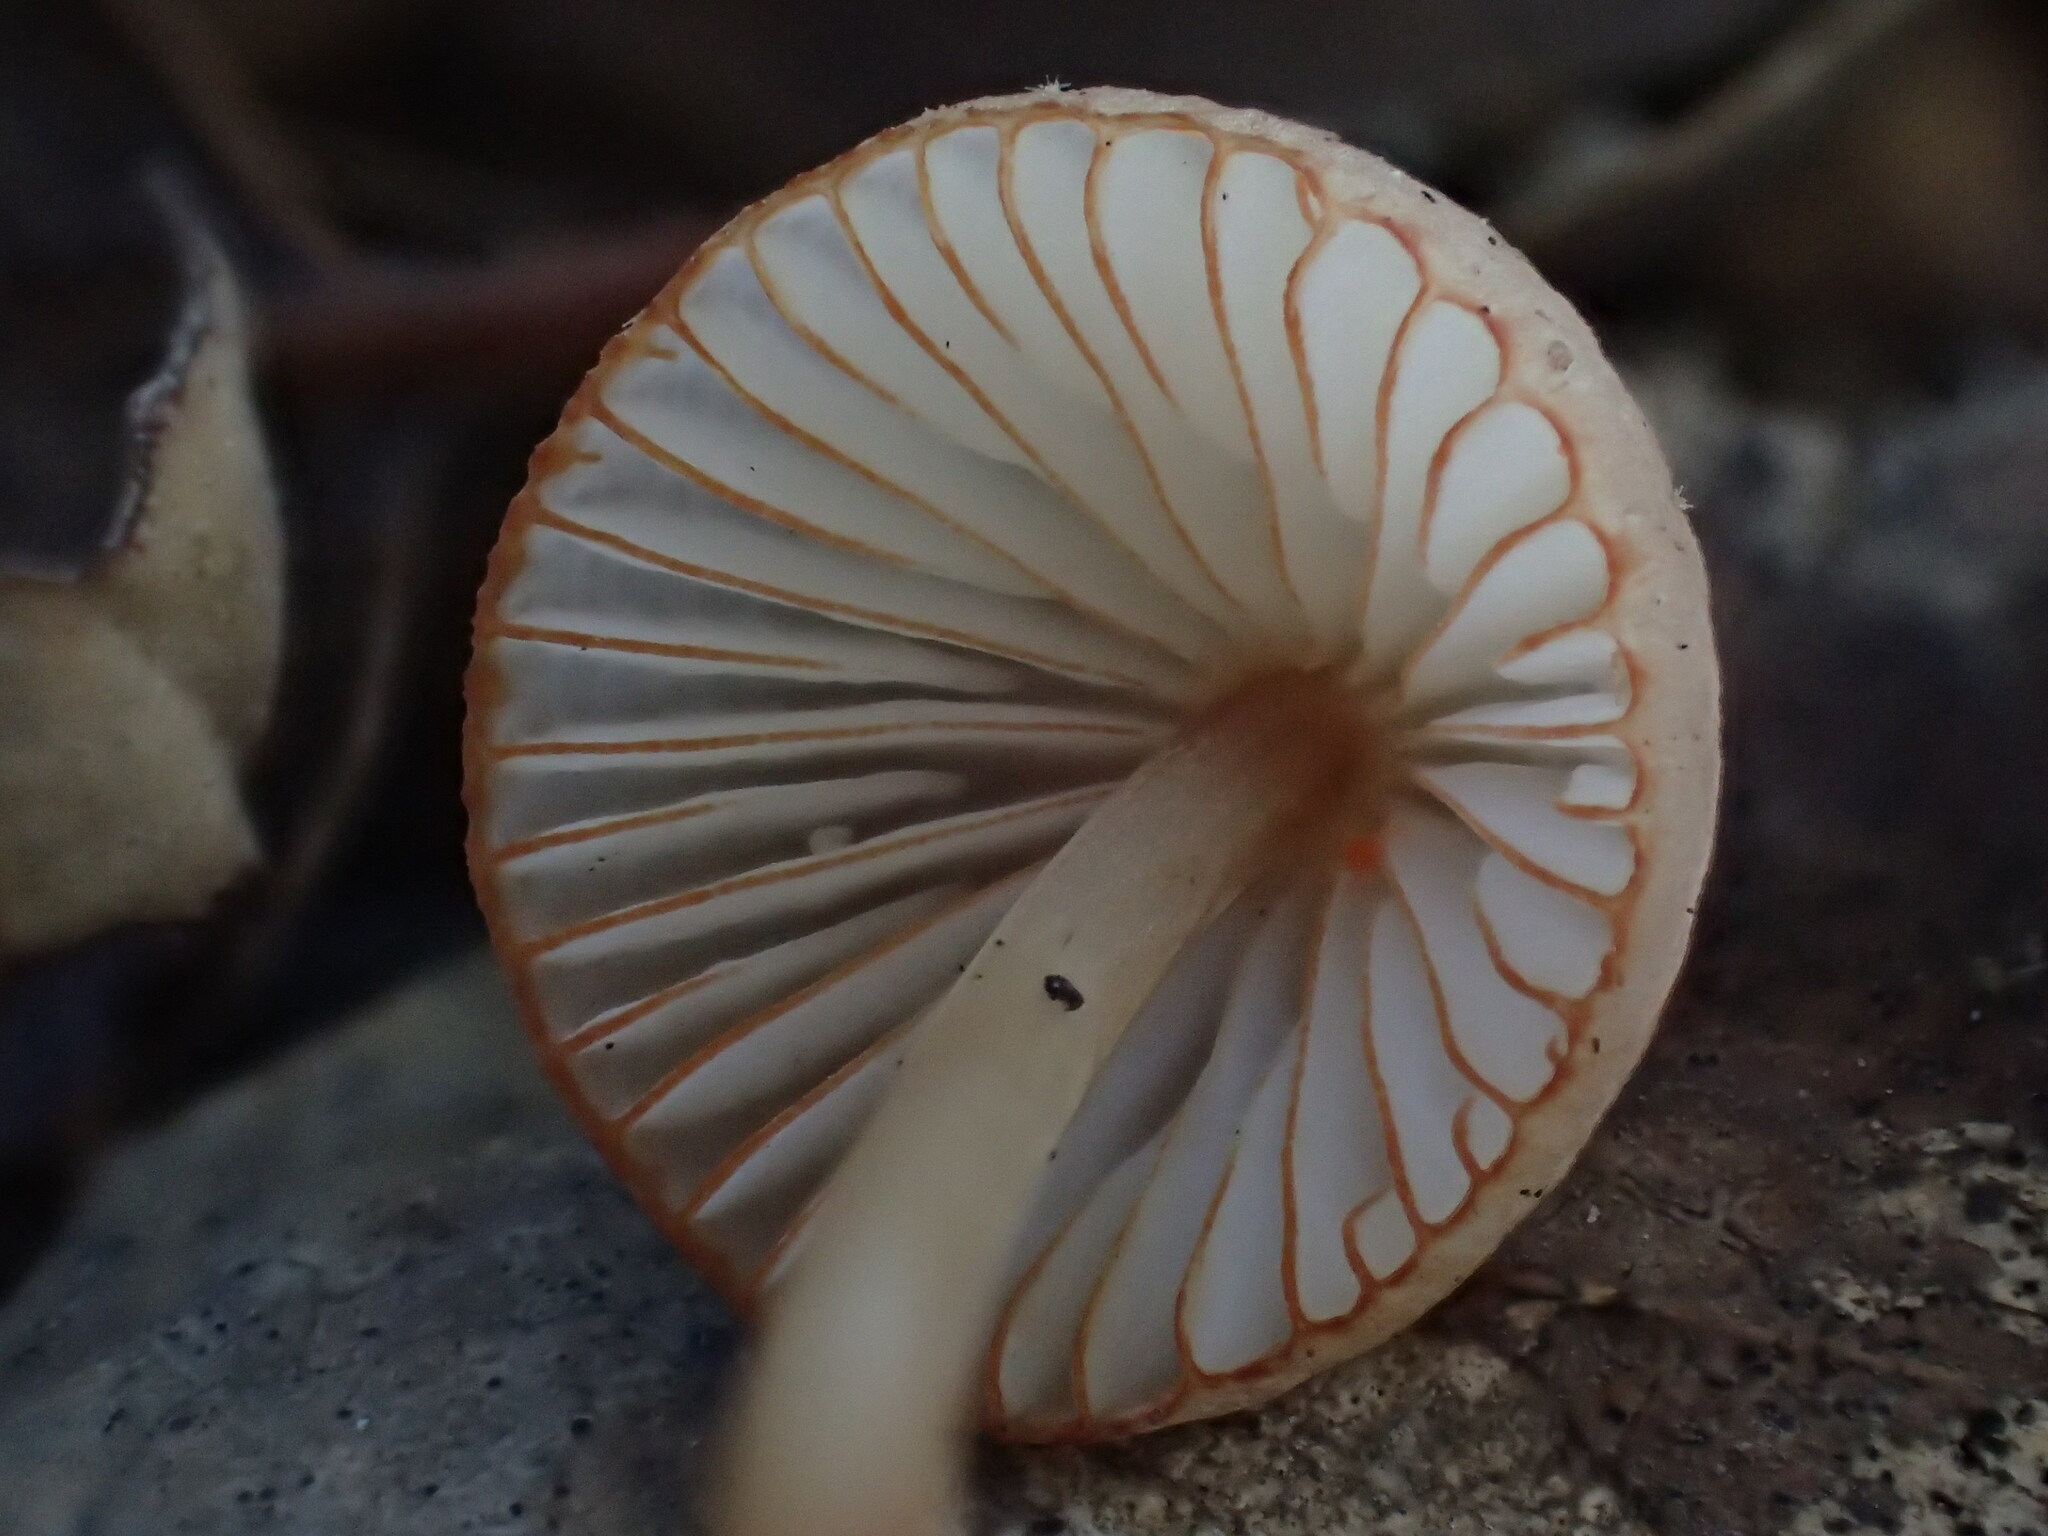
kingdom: Fungi
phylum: Basidiomycota
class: Agaricomycetes
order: Agaricales
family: Mycenaceae
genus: Mycena
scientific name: Mycena
